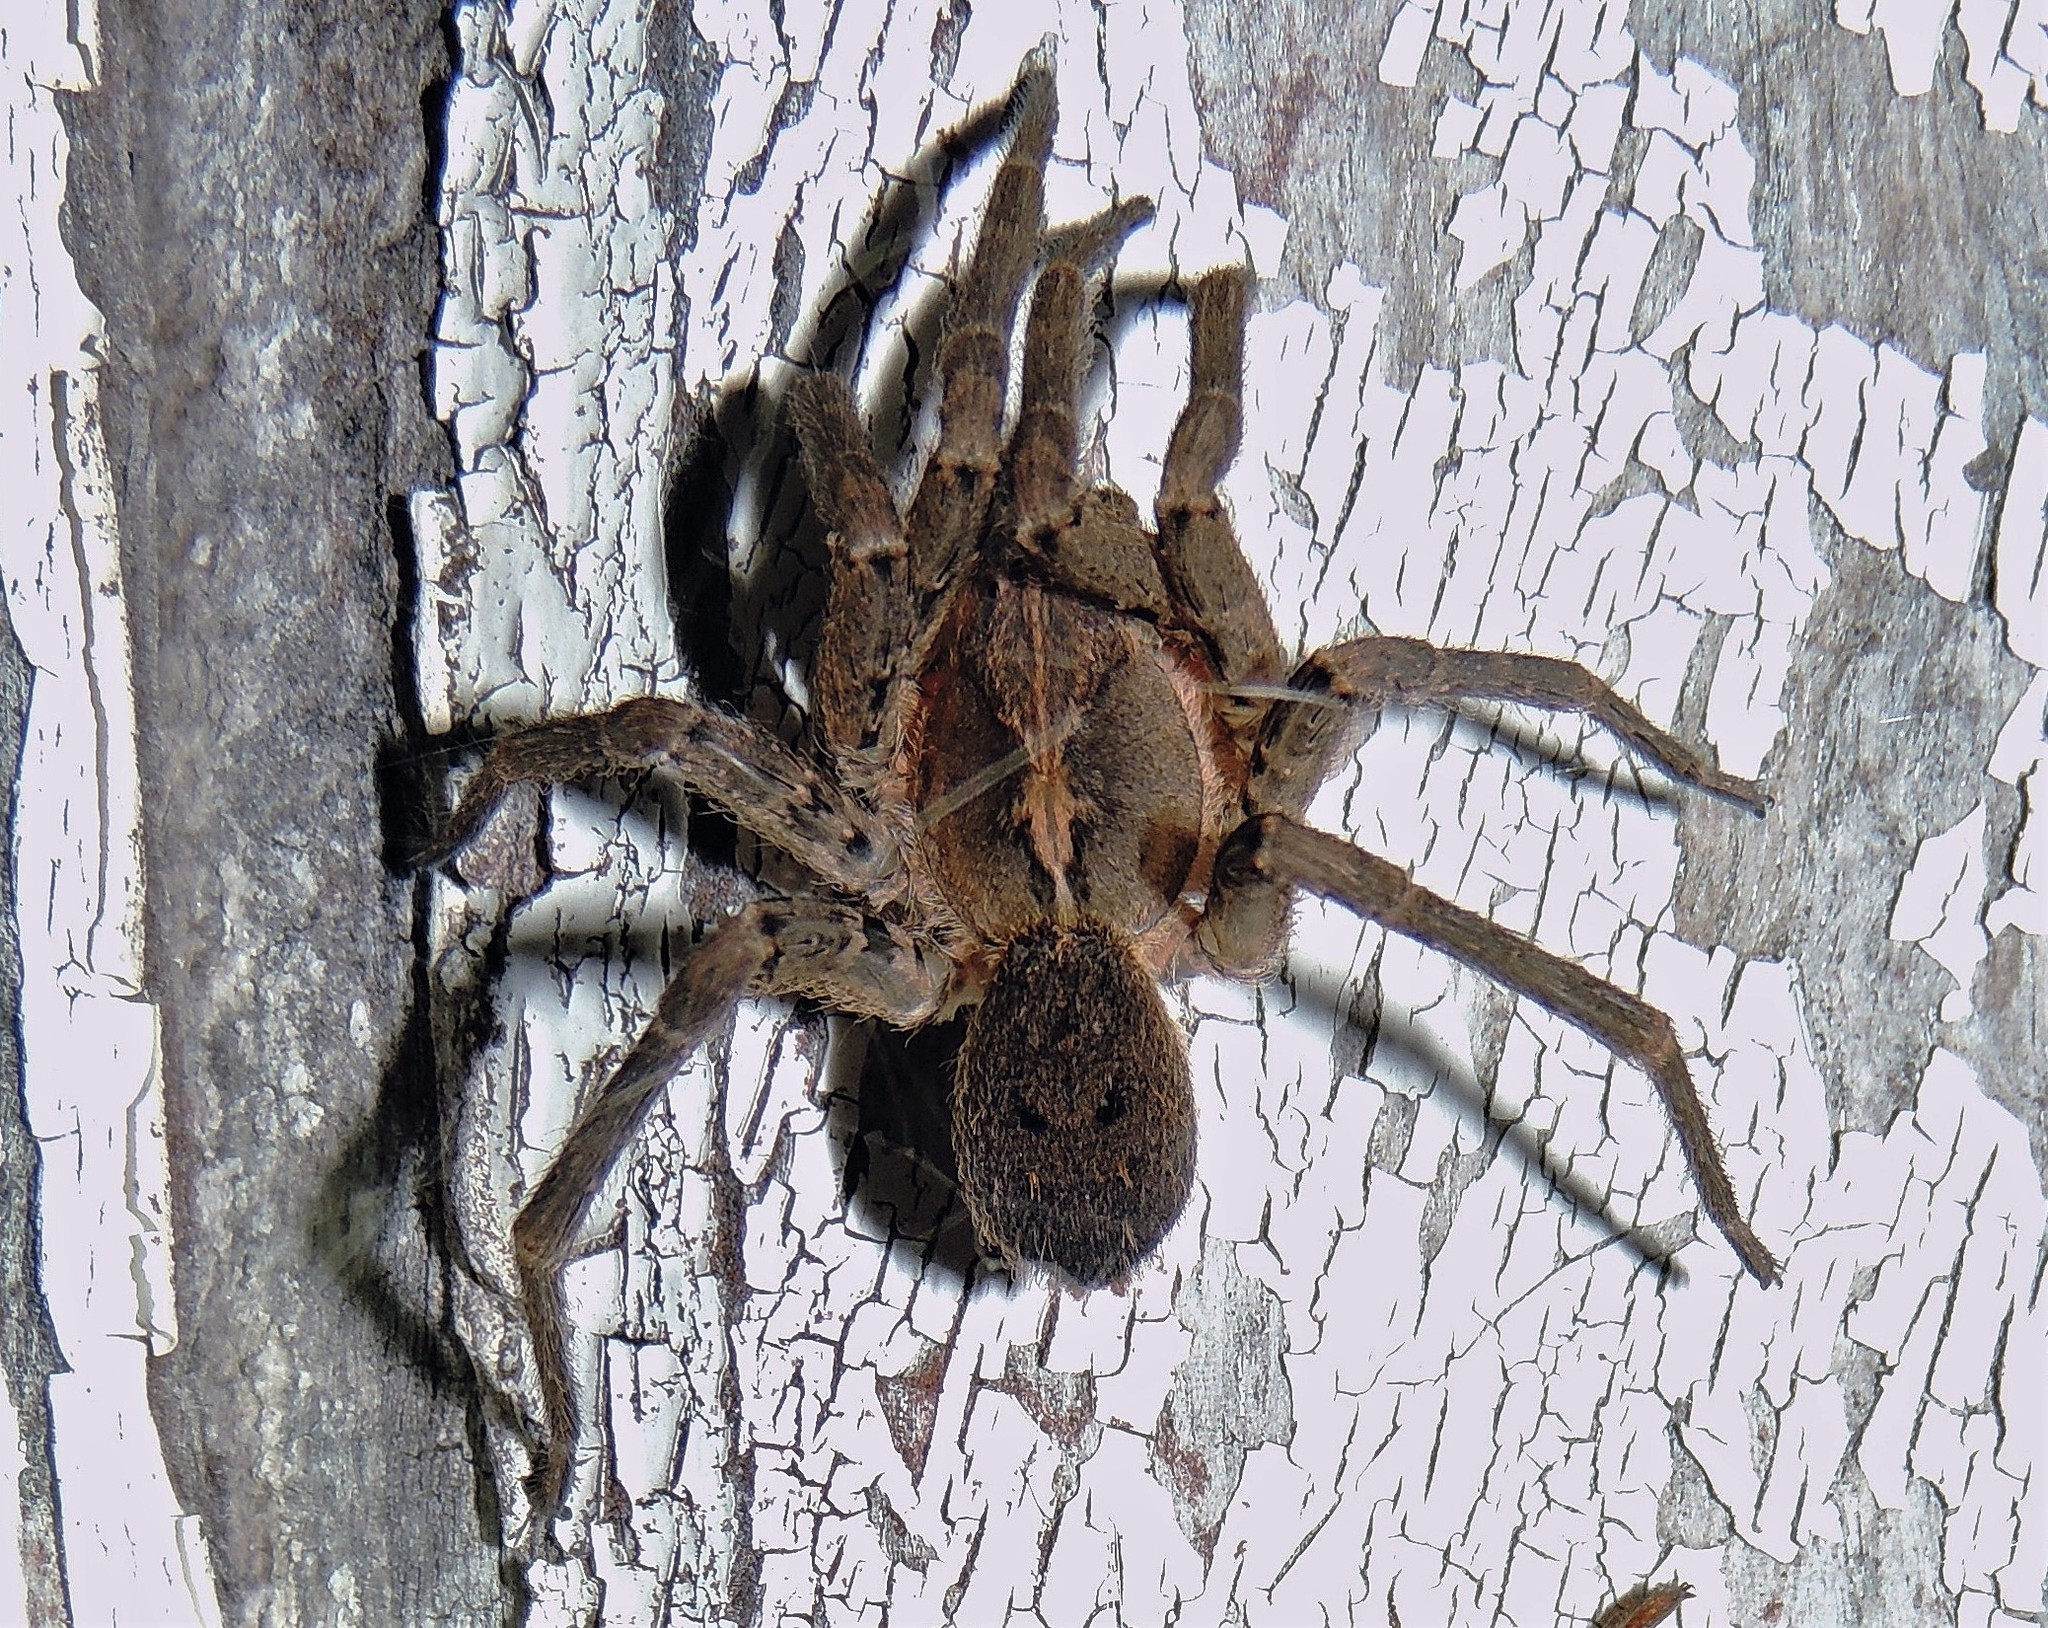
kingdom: Animalia
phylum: Arthropoda
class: Arachnida
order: Araneae
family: Ctenidae
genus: Parabatinga
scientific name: Parabatinga brevipes
